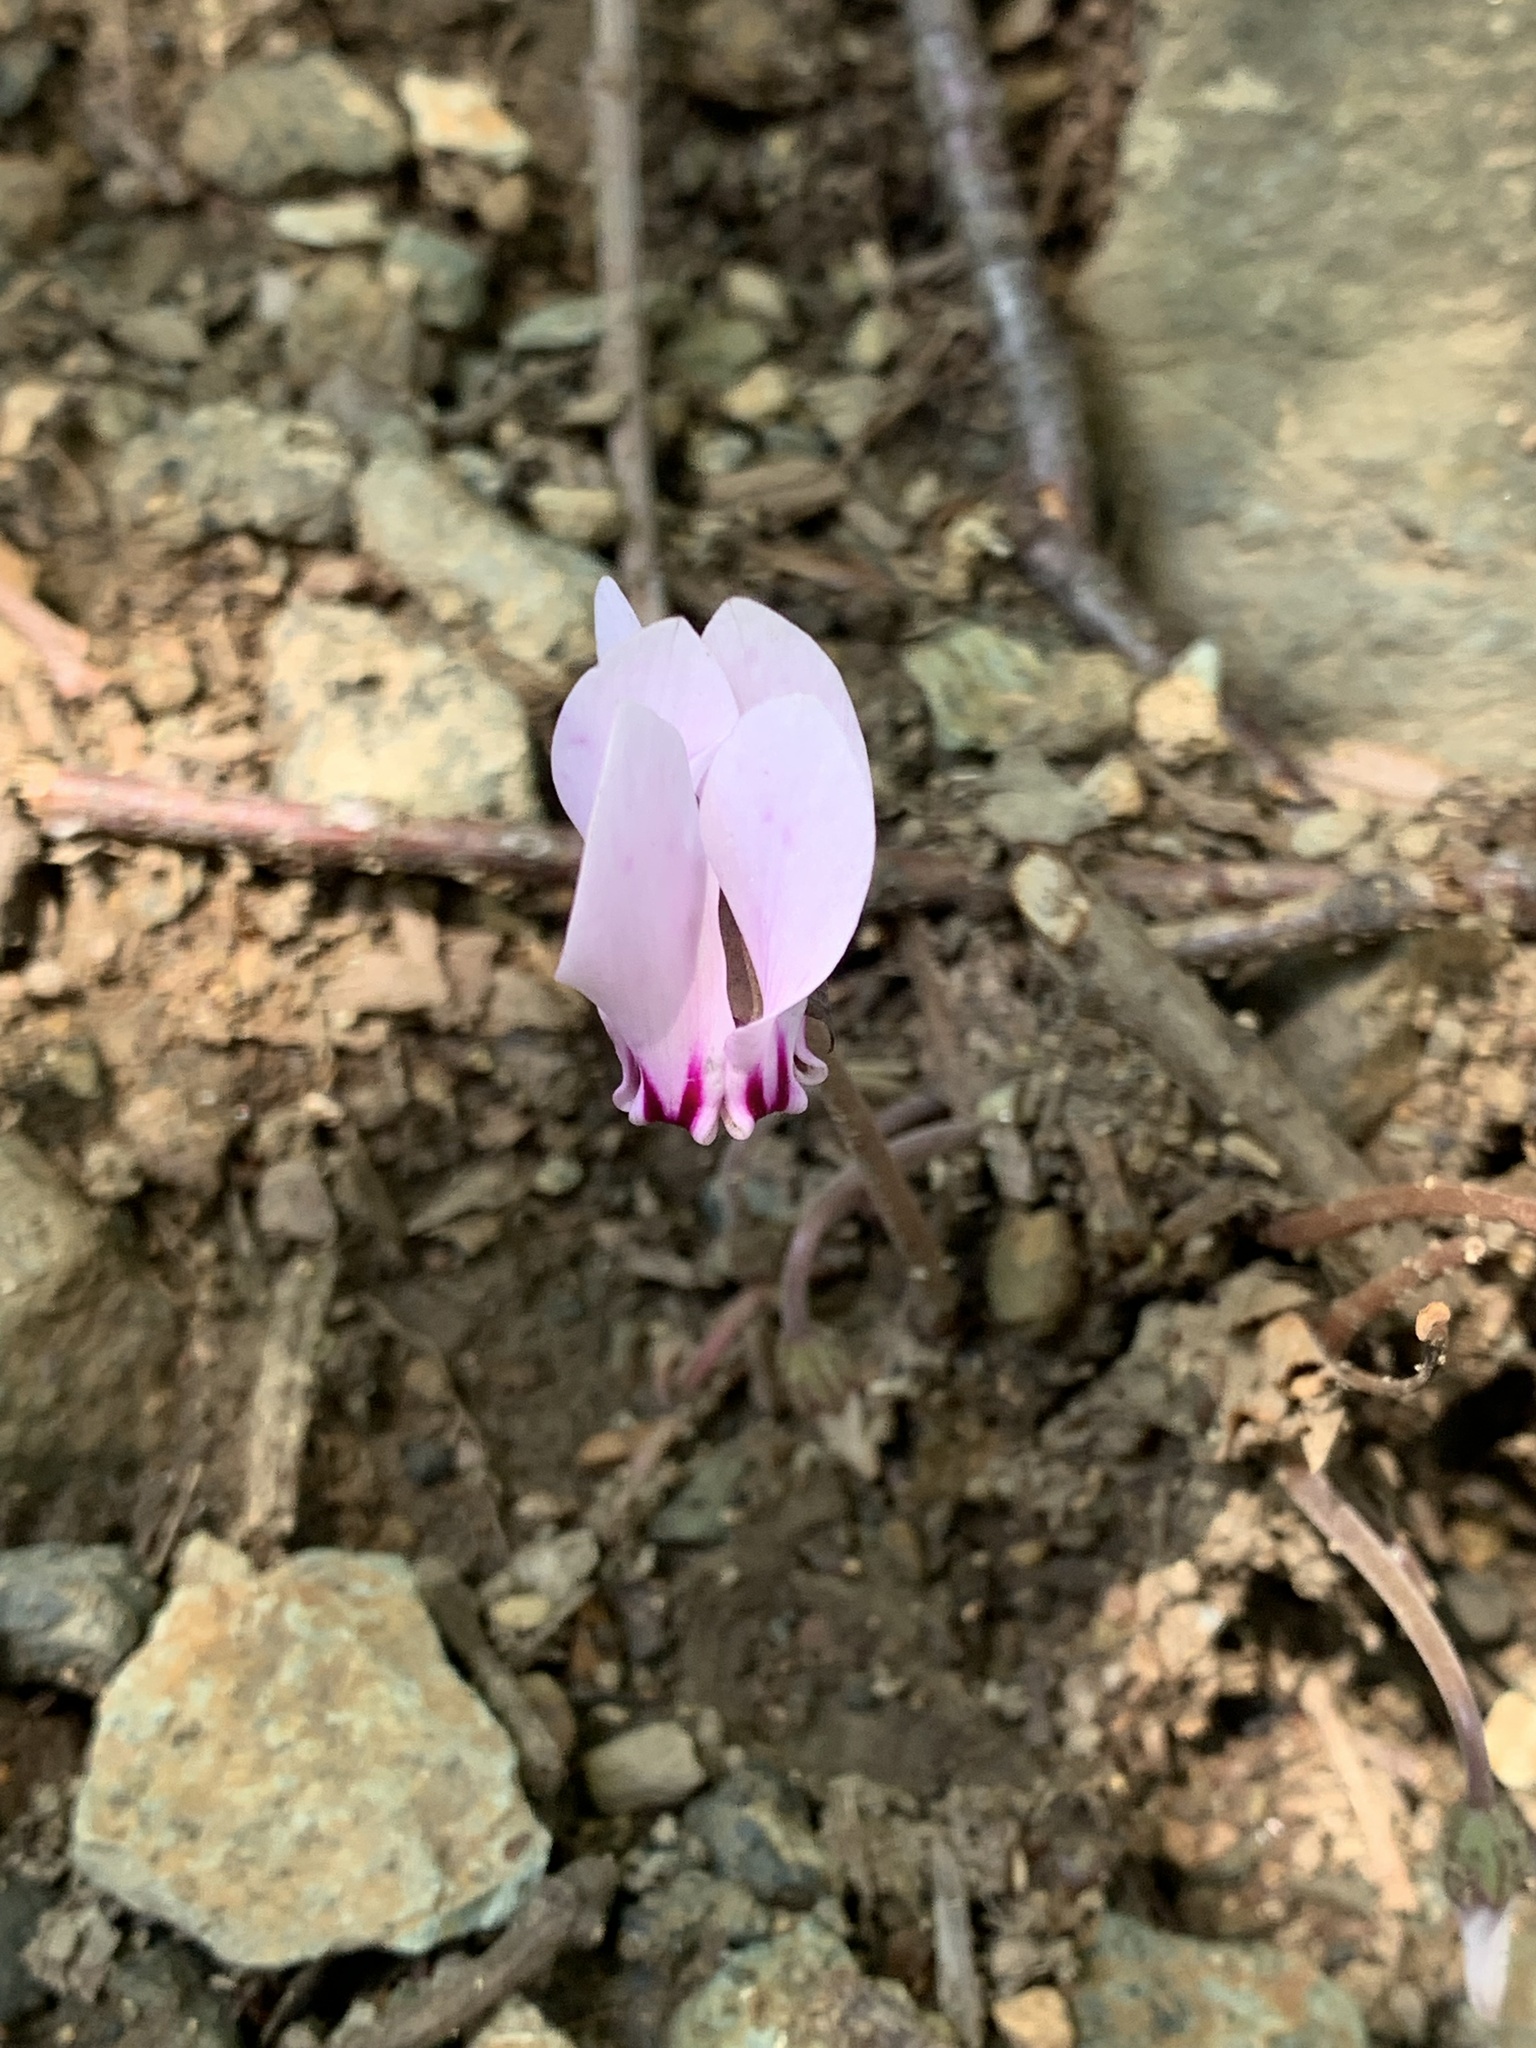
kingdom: Plantae
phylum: Tracheophyta
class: Magnoliopsida
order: Ericales
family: Primulaceae
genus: Cyclamen
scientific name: Cyclamen hederifolium
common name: Sowbread
